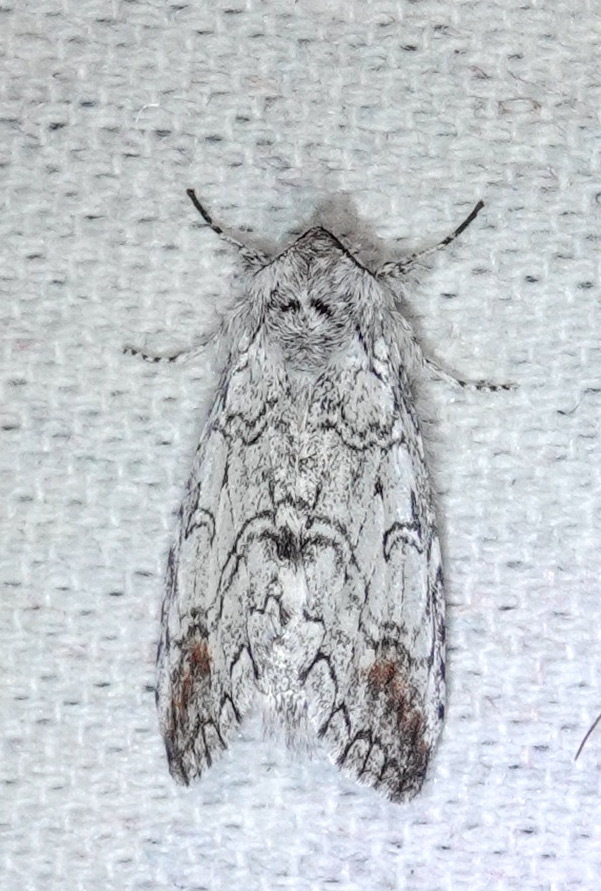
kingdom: Animalia
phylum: Arthropoda
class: Insecta
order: Lepidoptera
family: Notodontidae
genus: Sericochroa
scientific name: Sericochroa felderi
